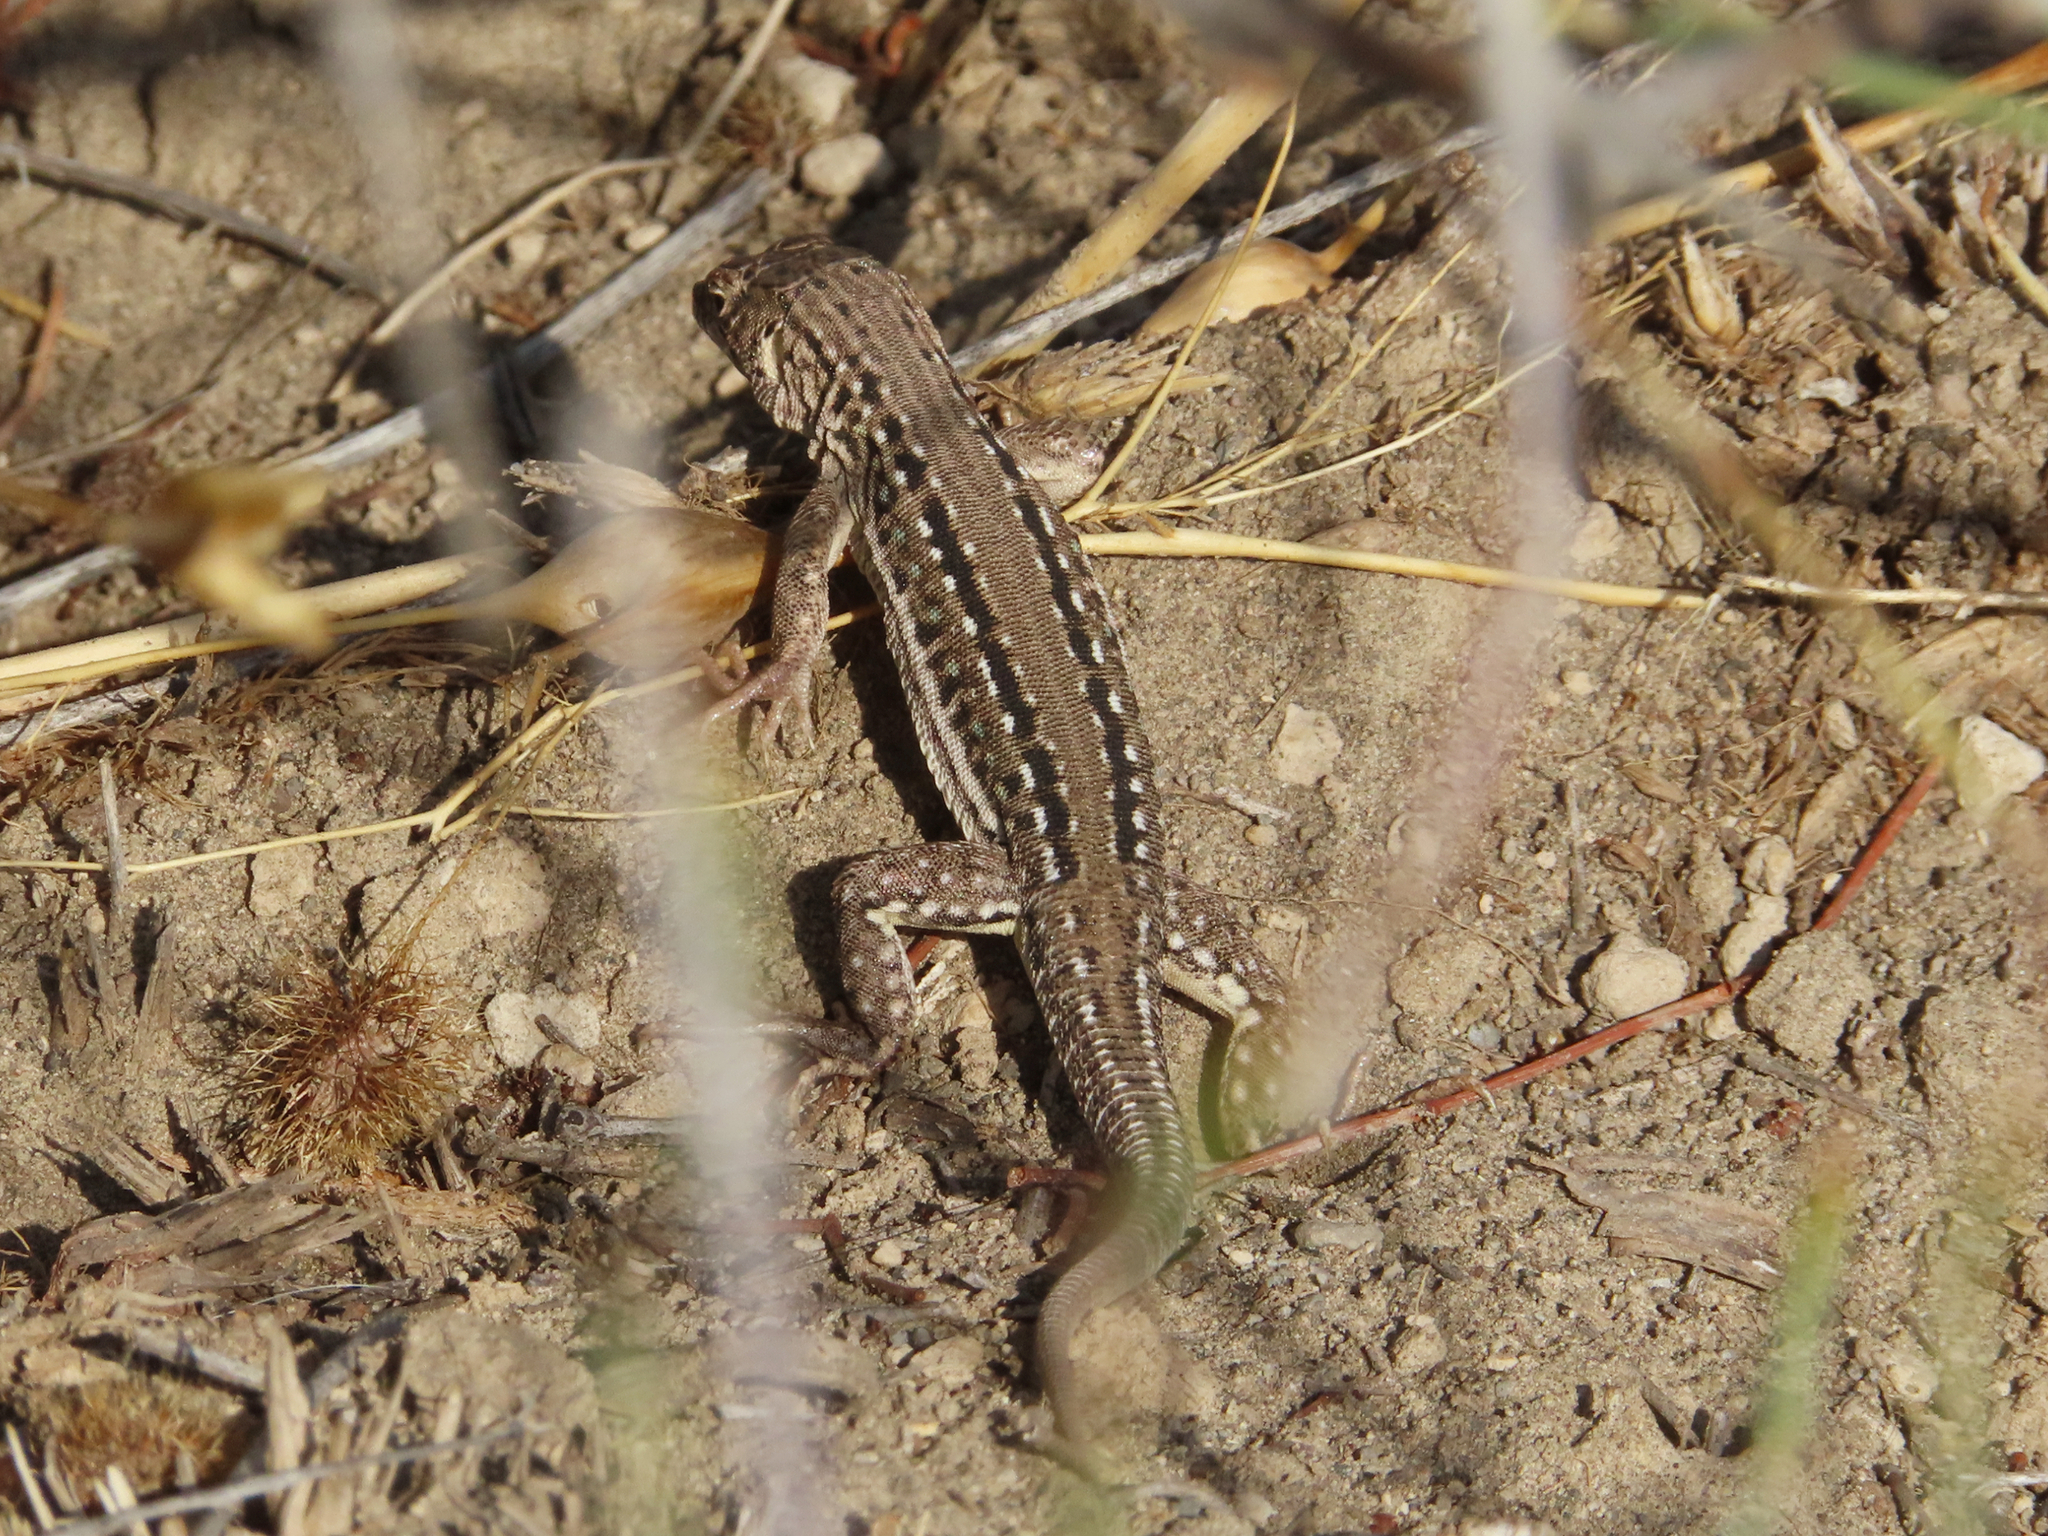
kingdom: Animalia
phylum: Chordata
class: Squamata
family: Lacertidae
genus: Eremias
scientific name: Eremias strauchi
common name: Strauch's racerunner
